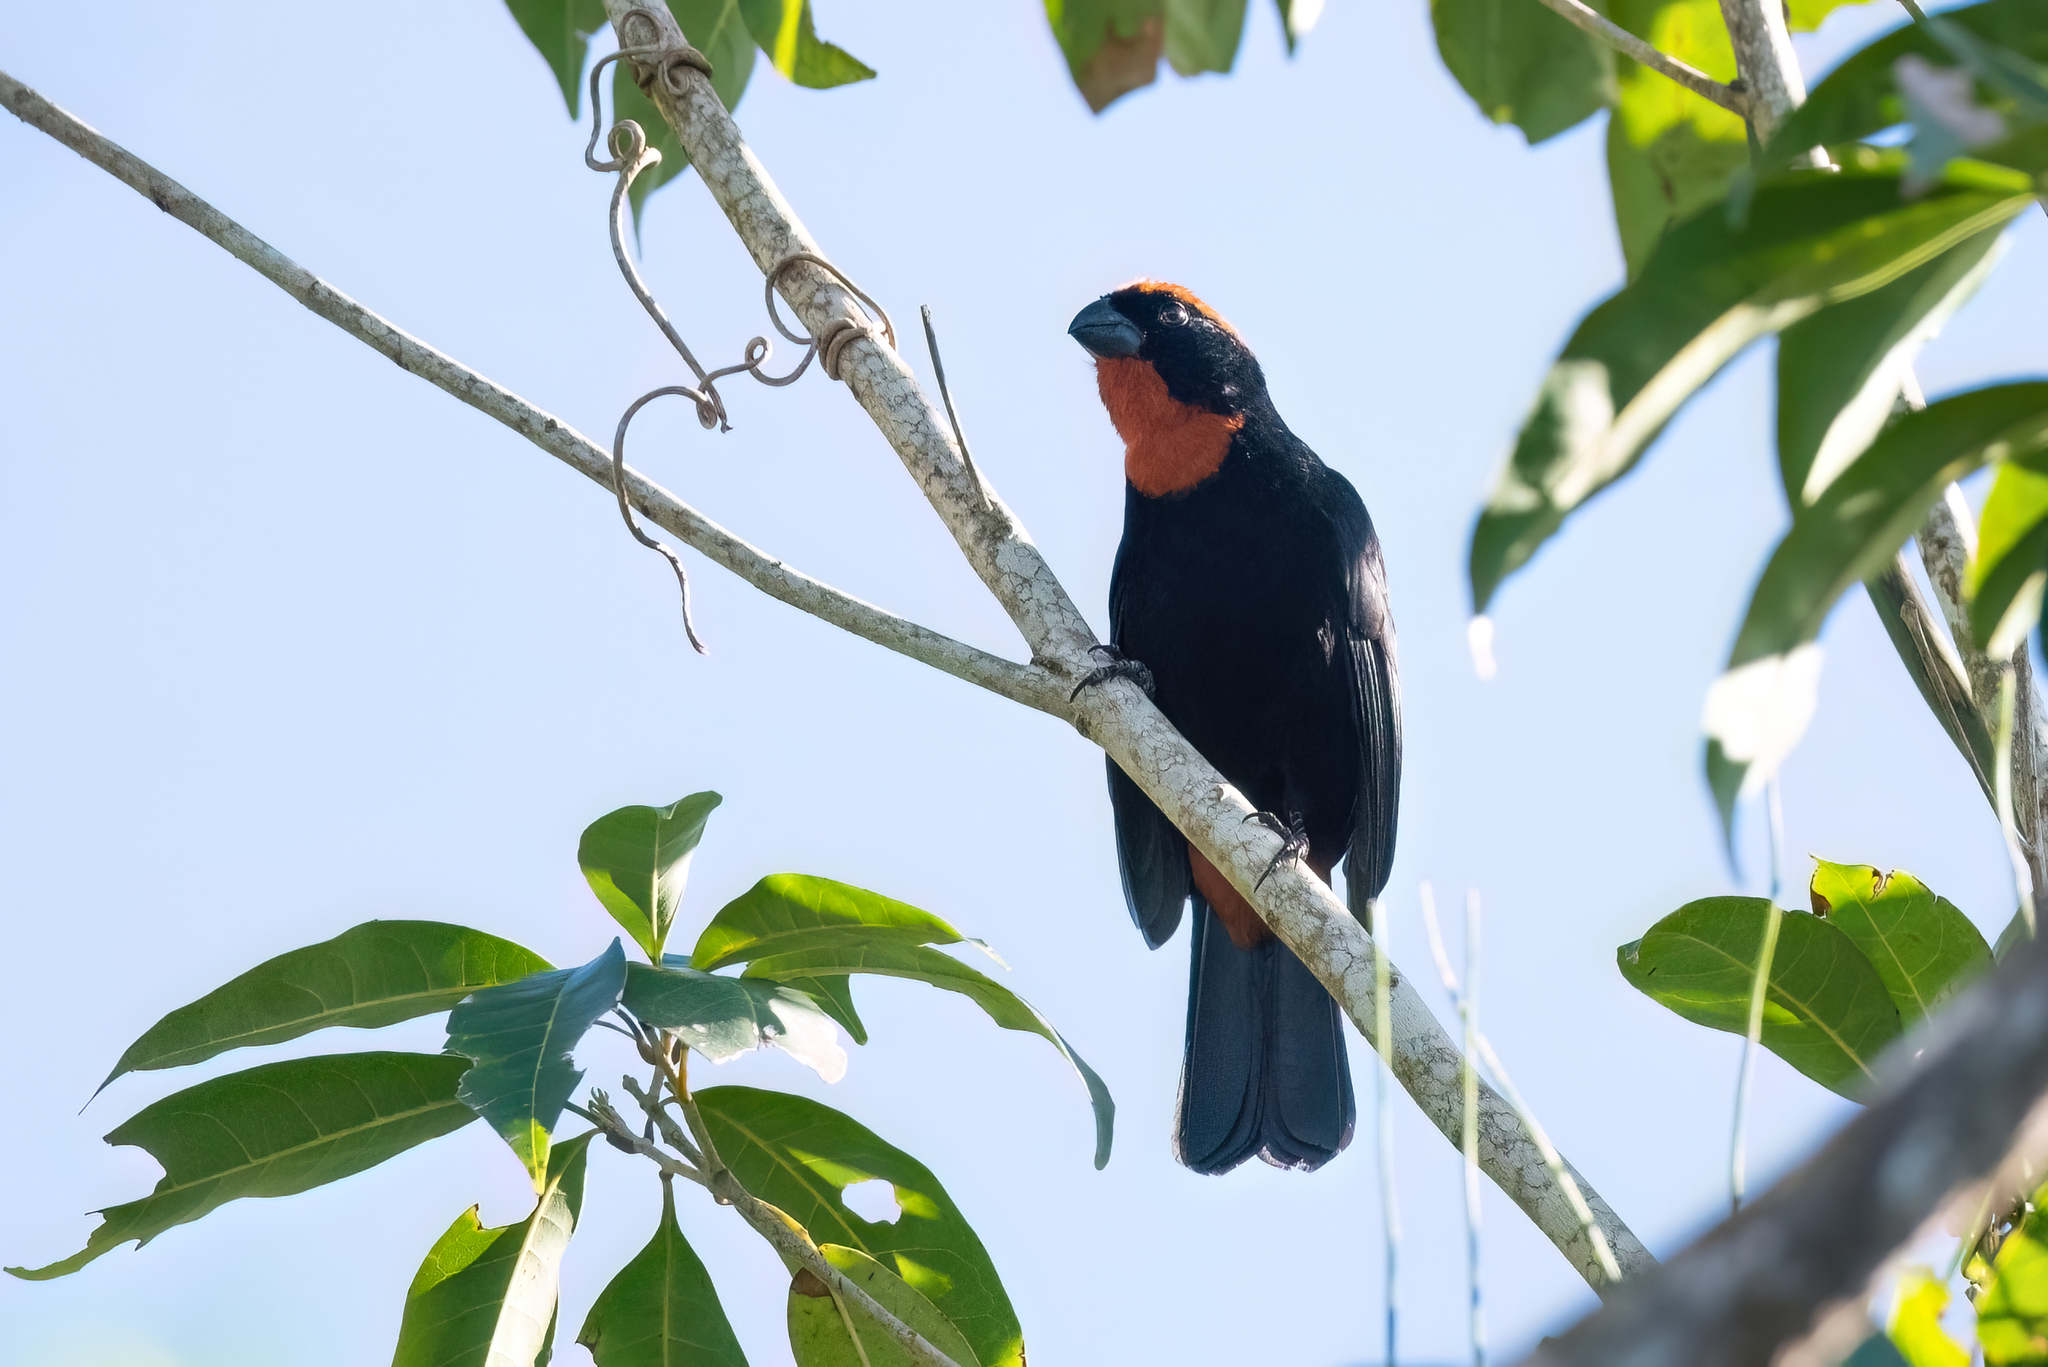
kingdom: Animalia
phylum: Chordata
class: Aves
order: Passeriformes
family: Thraupidae
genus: Melopyrrha
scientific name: Melopyrrha portoricensis
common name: Puerto rican bullfinch
